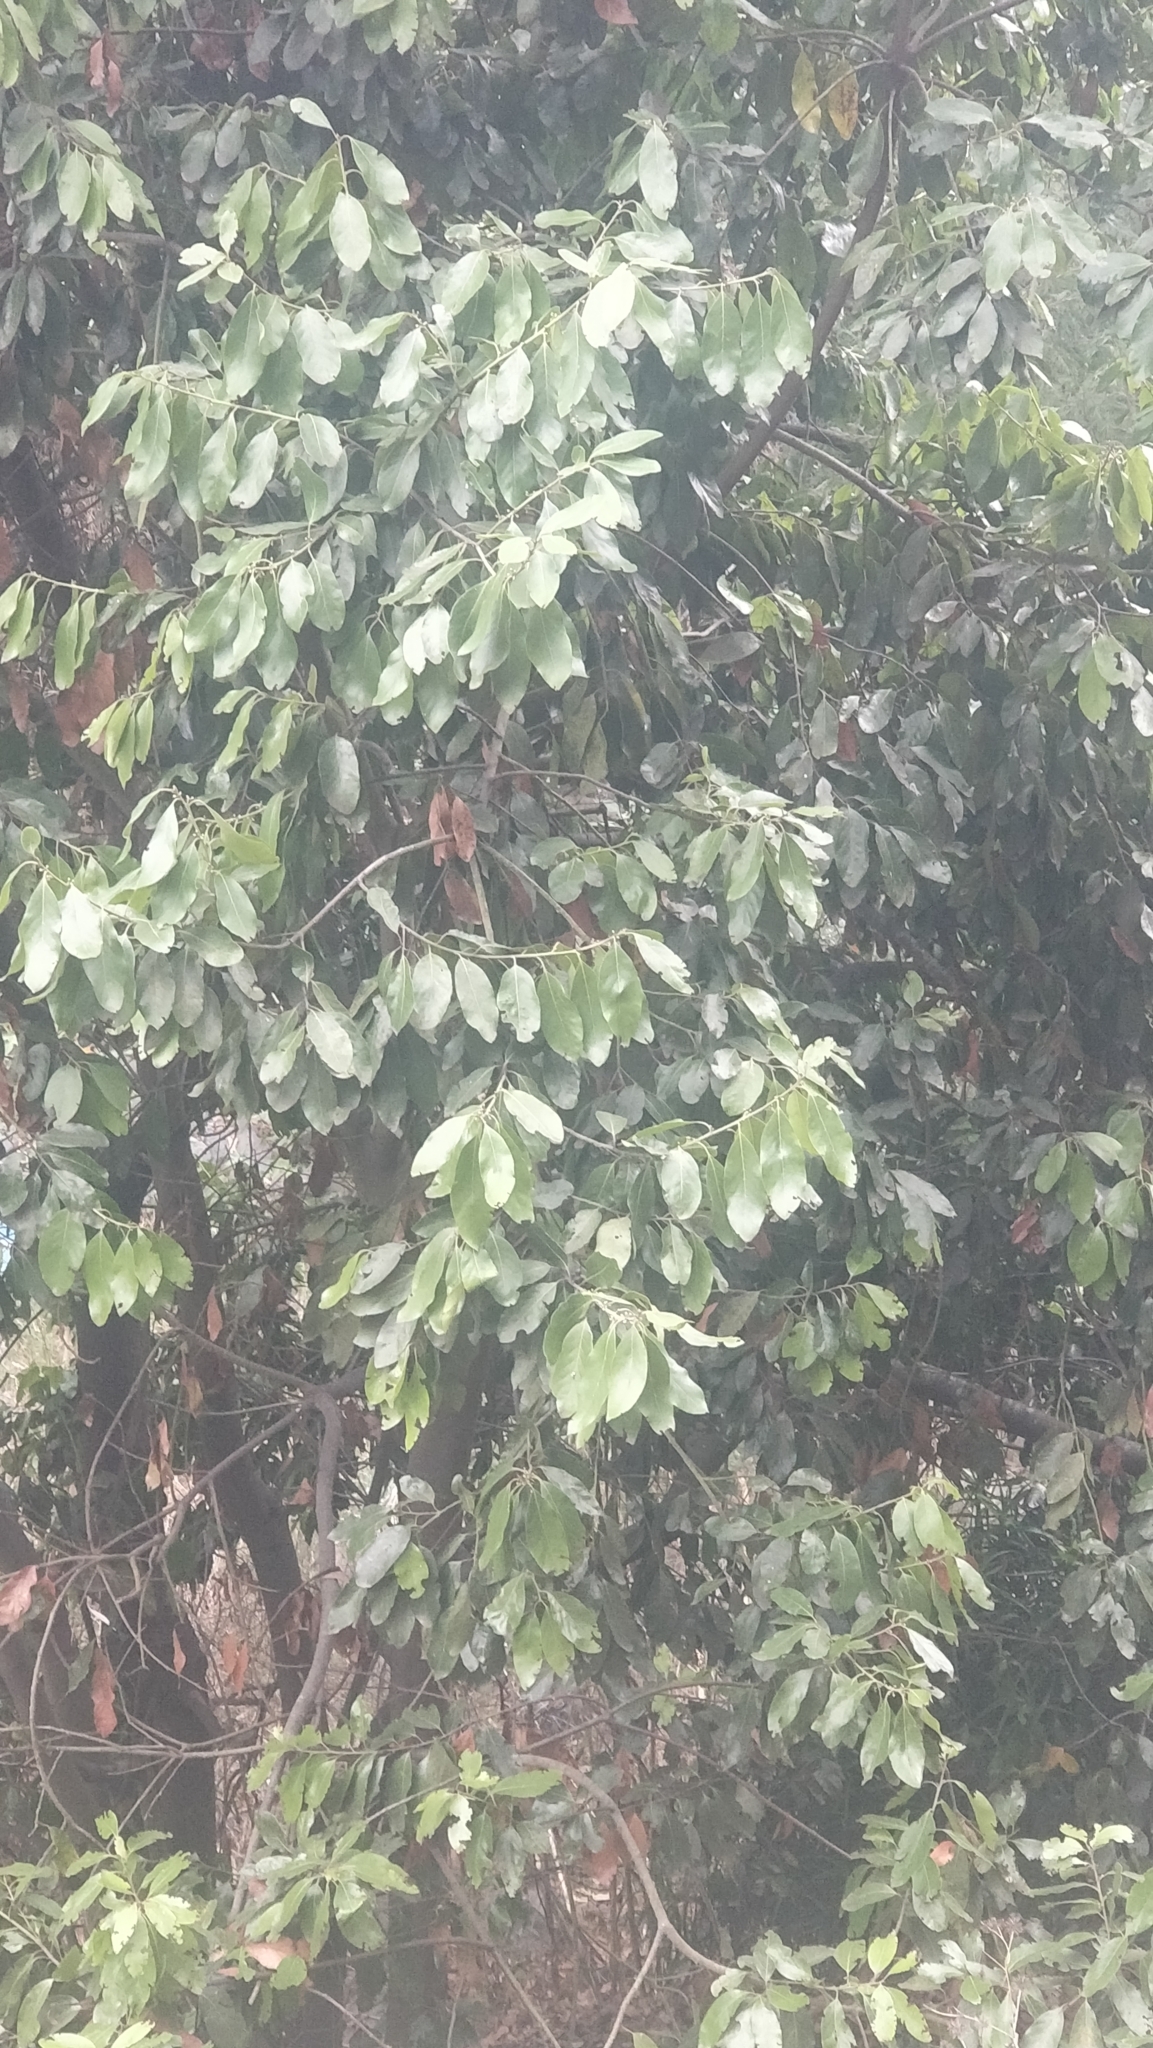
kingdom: Plantae
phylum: Tracheophyta
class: Magnoliopsida
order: Laurales
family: Lauraceae
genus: Laurus
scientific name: Laurus novocanariensis
